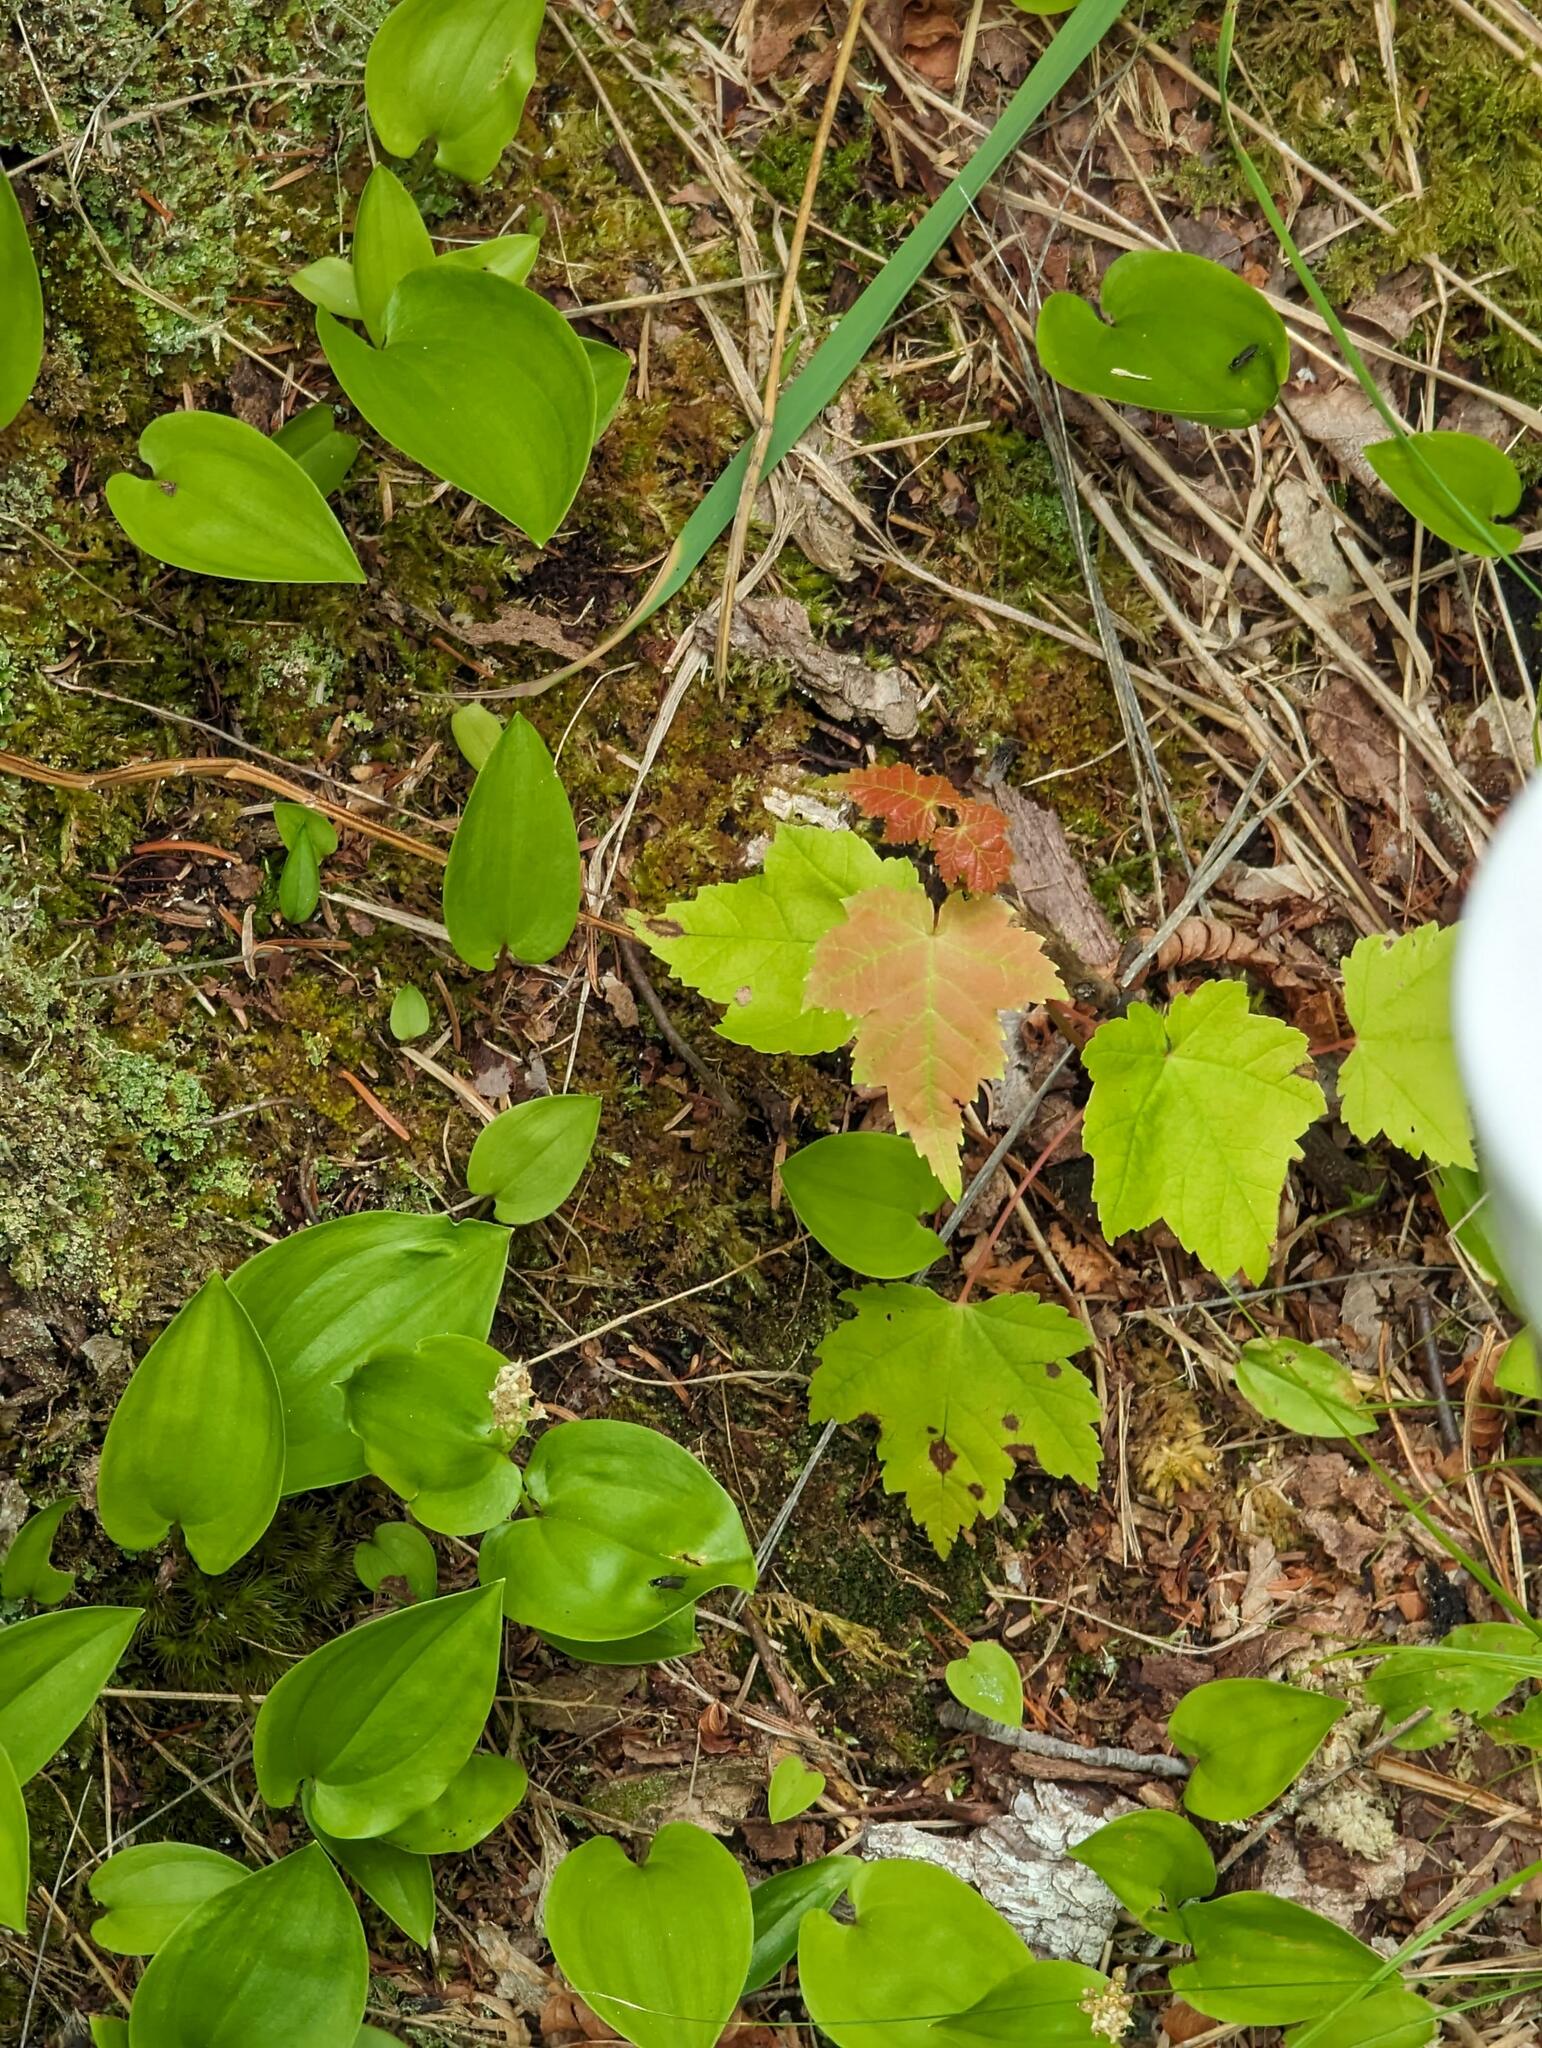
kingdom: Plantae
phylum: Tracheophyta
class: Magnoliopsida
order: Sapindales
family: Sapindaceae
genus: Acer
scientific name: Acer rubrum
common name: Red maple
